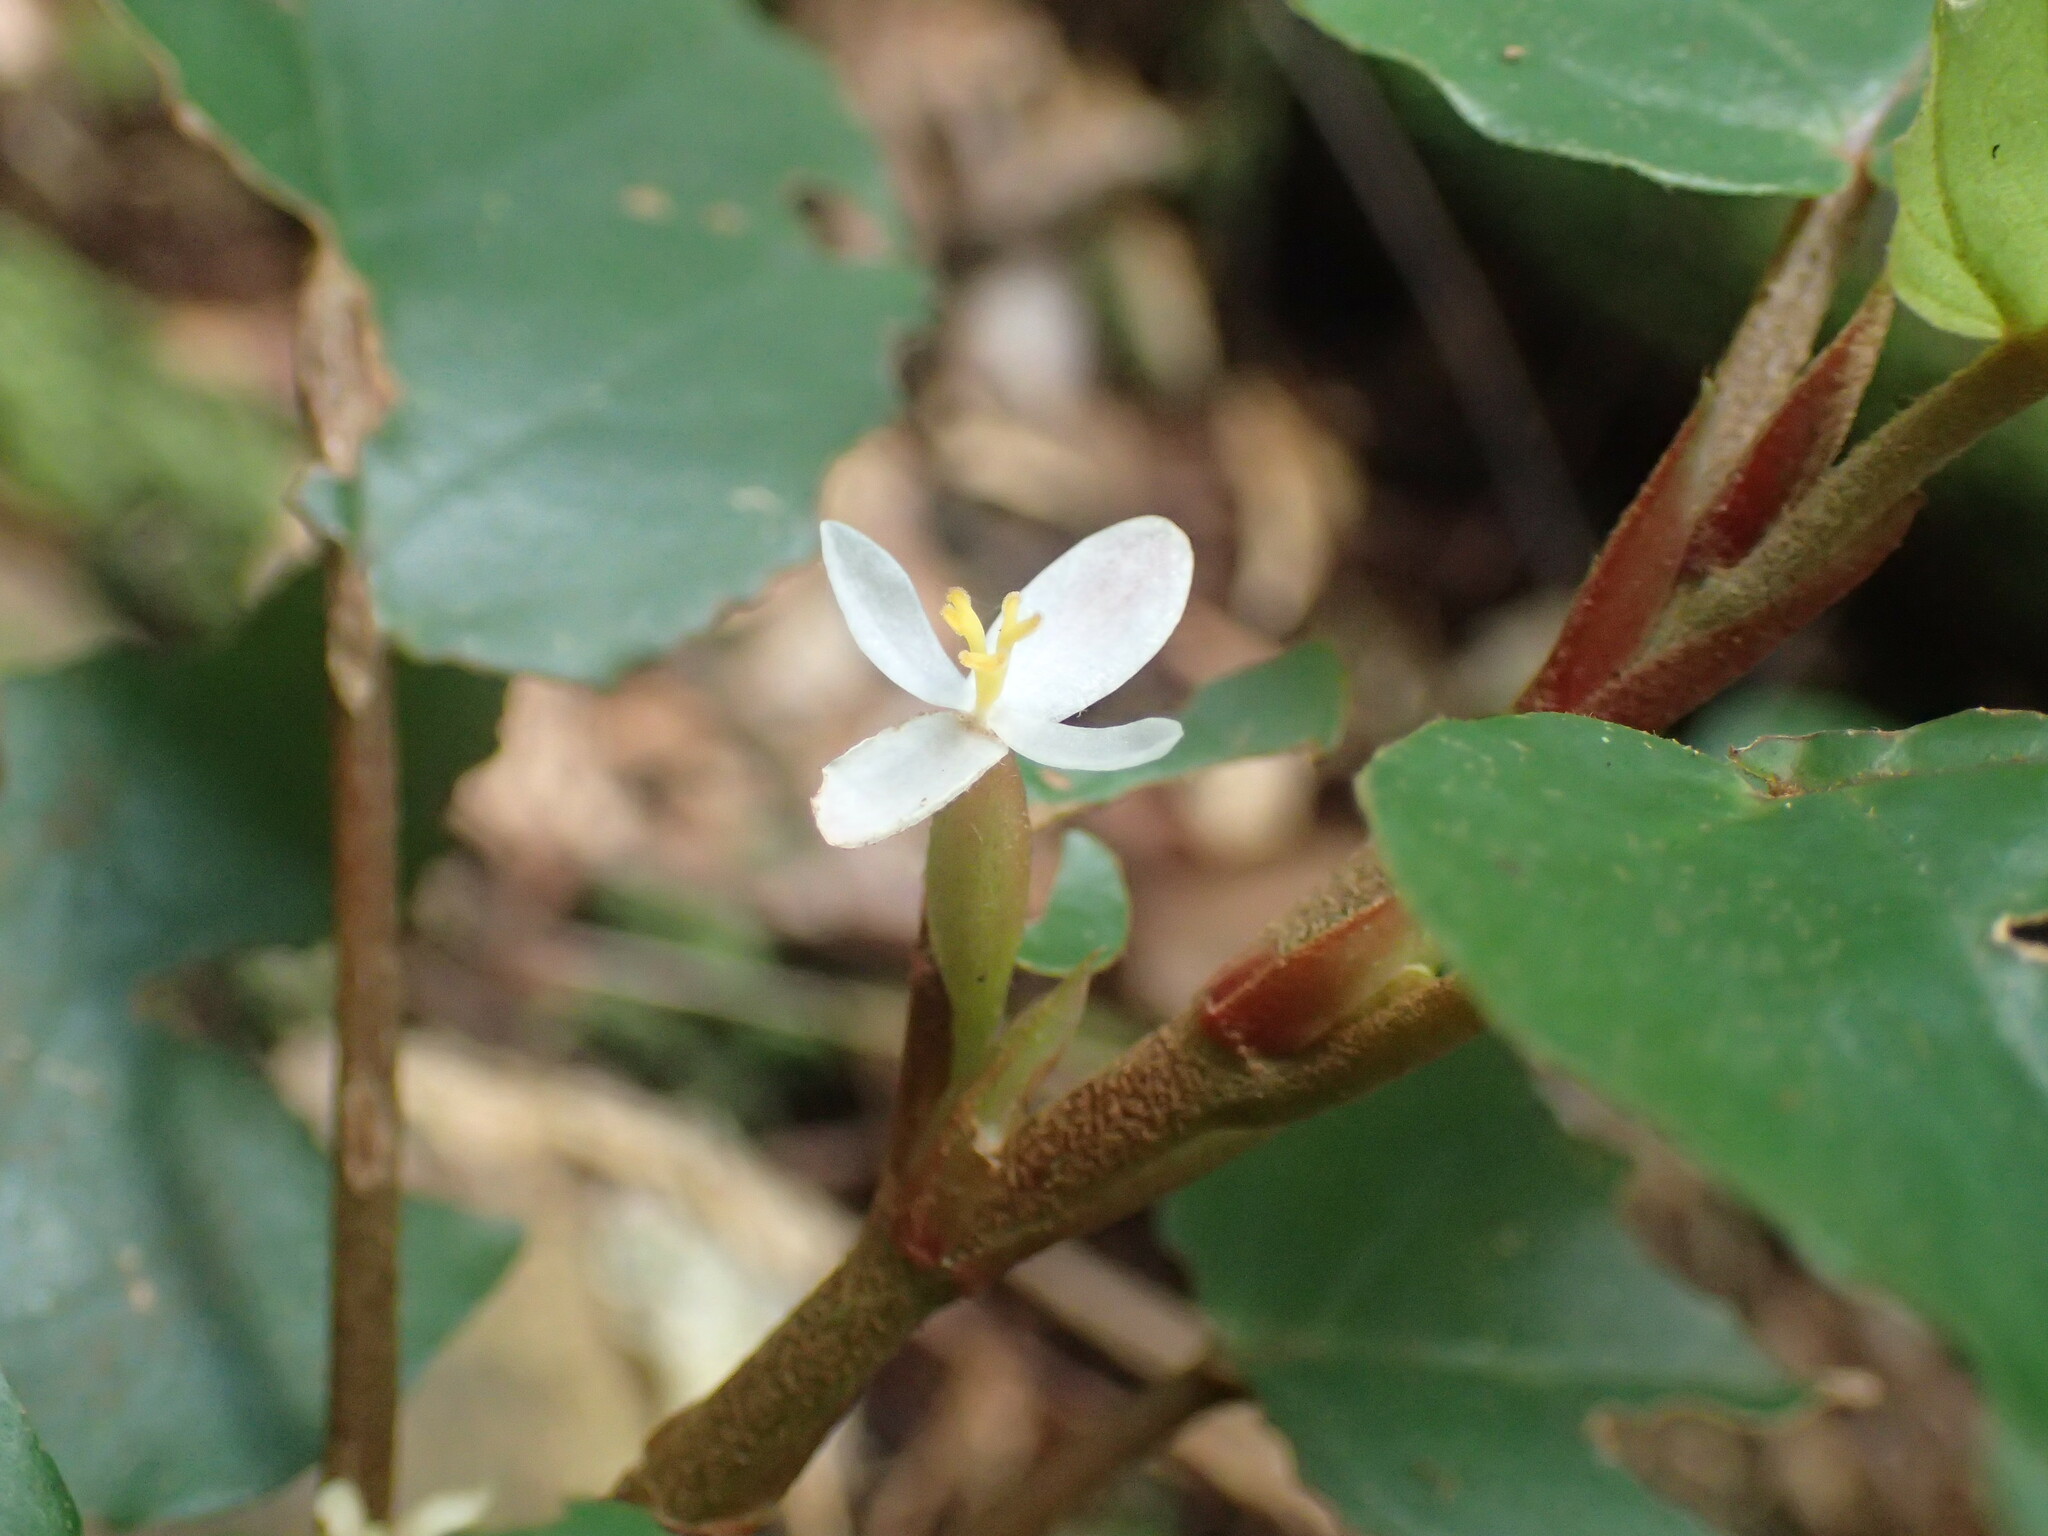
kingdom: Plantae
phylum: Tracheophyta
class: Magnoliopsida
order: Cucurbitales
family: Begoniaceae
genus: Begonia
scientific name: Begonia fusialata
